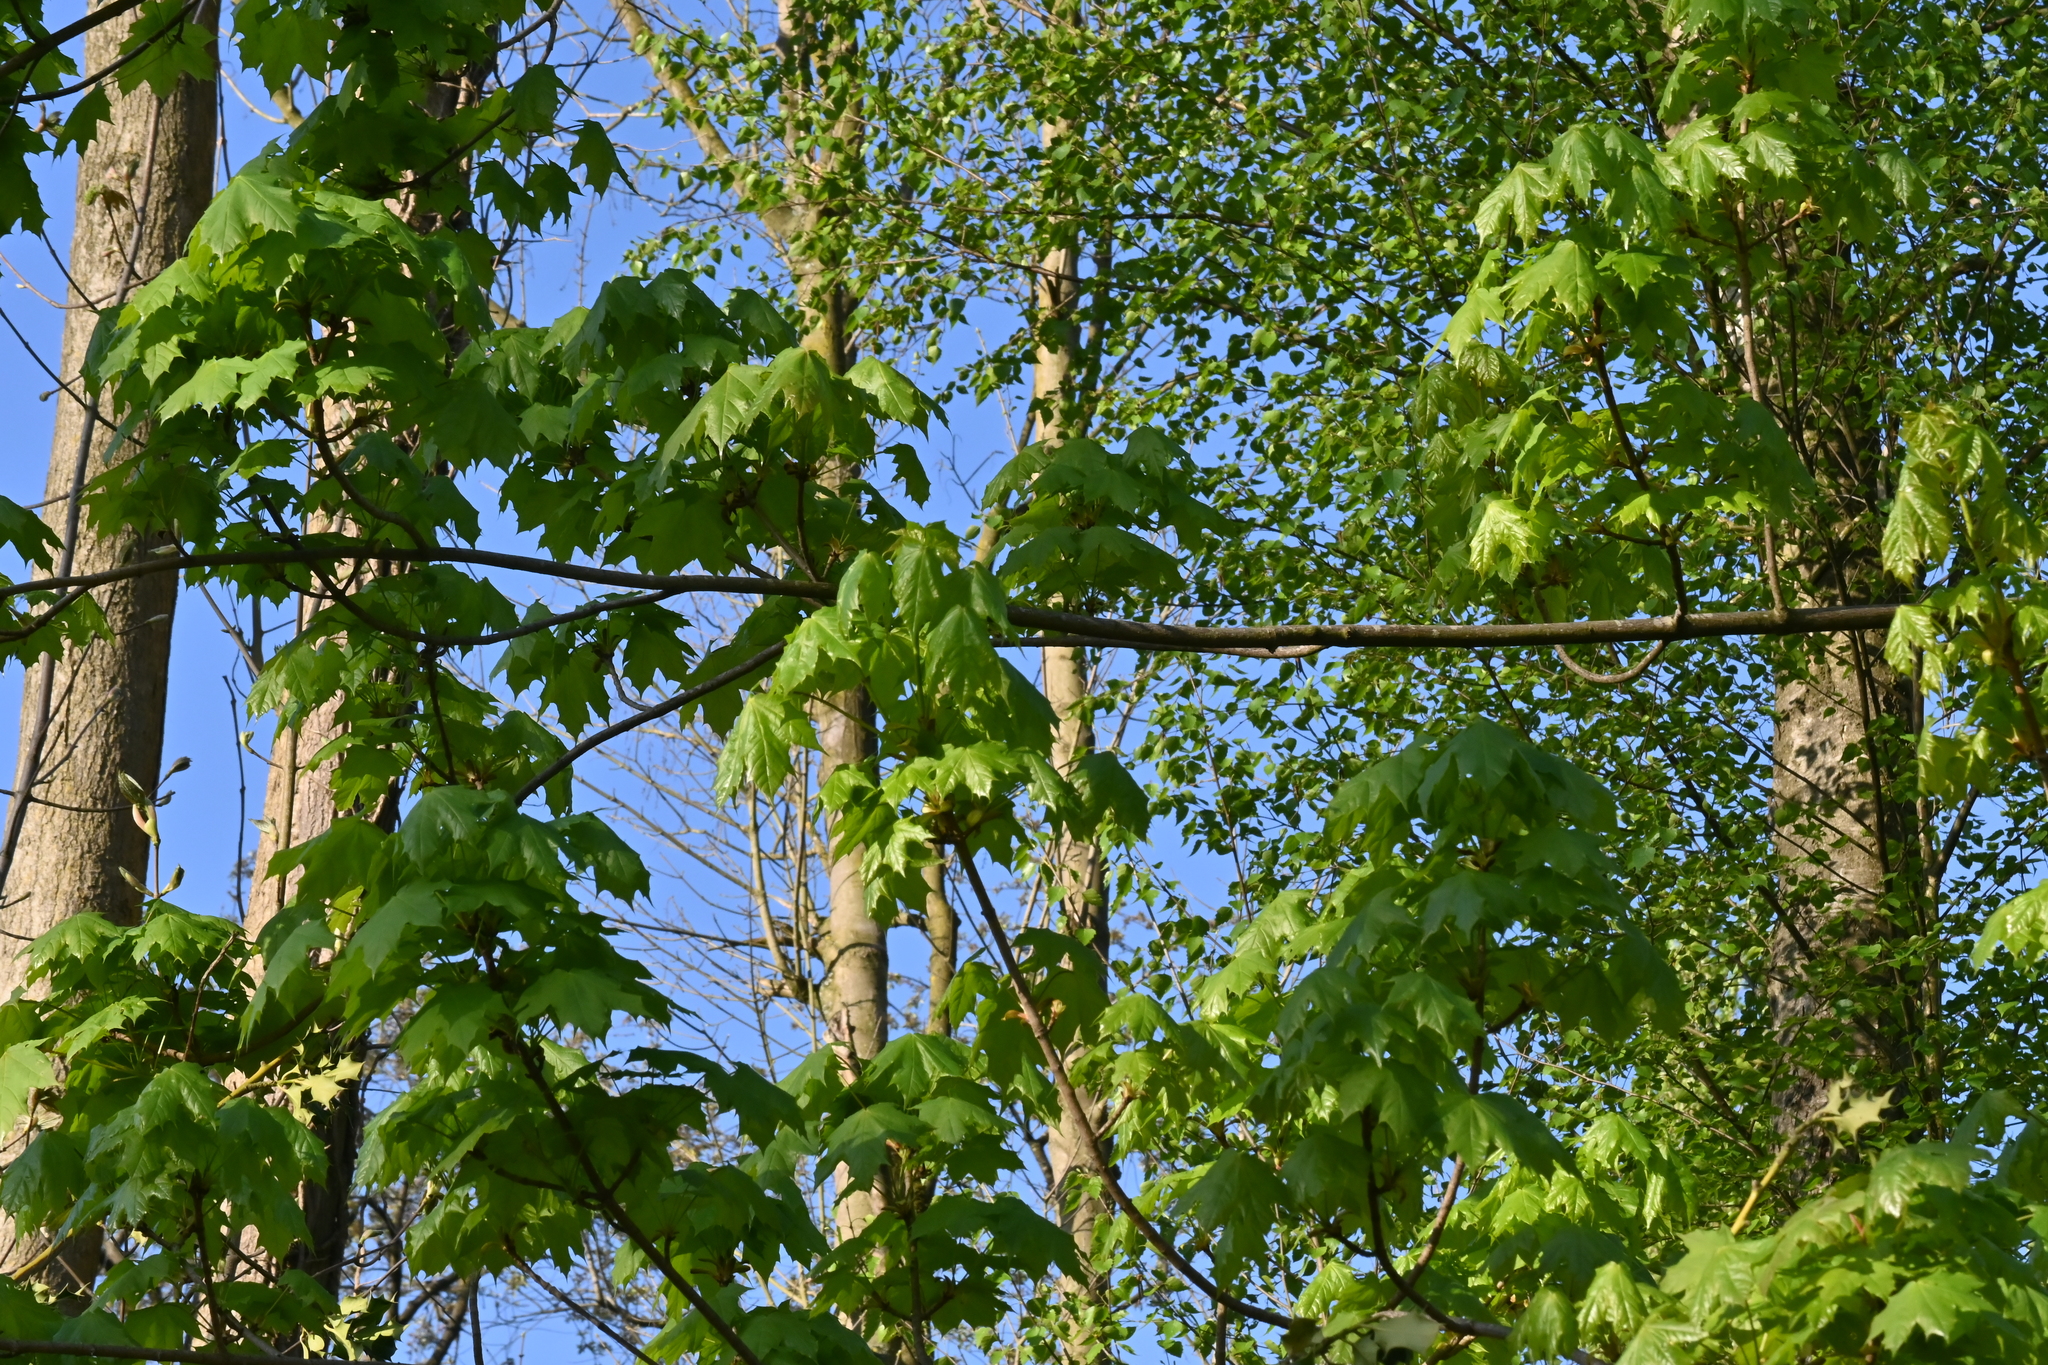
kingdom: Plantae
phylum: Tracheophyta
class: Magnoliopsida
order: Sapindales
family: Sapindaceae
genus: Acer
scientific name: Acer platanoides
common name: Norway maple
